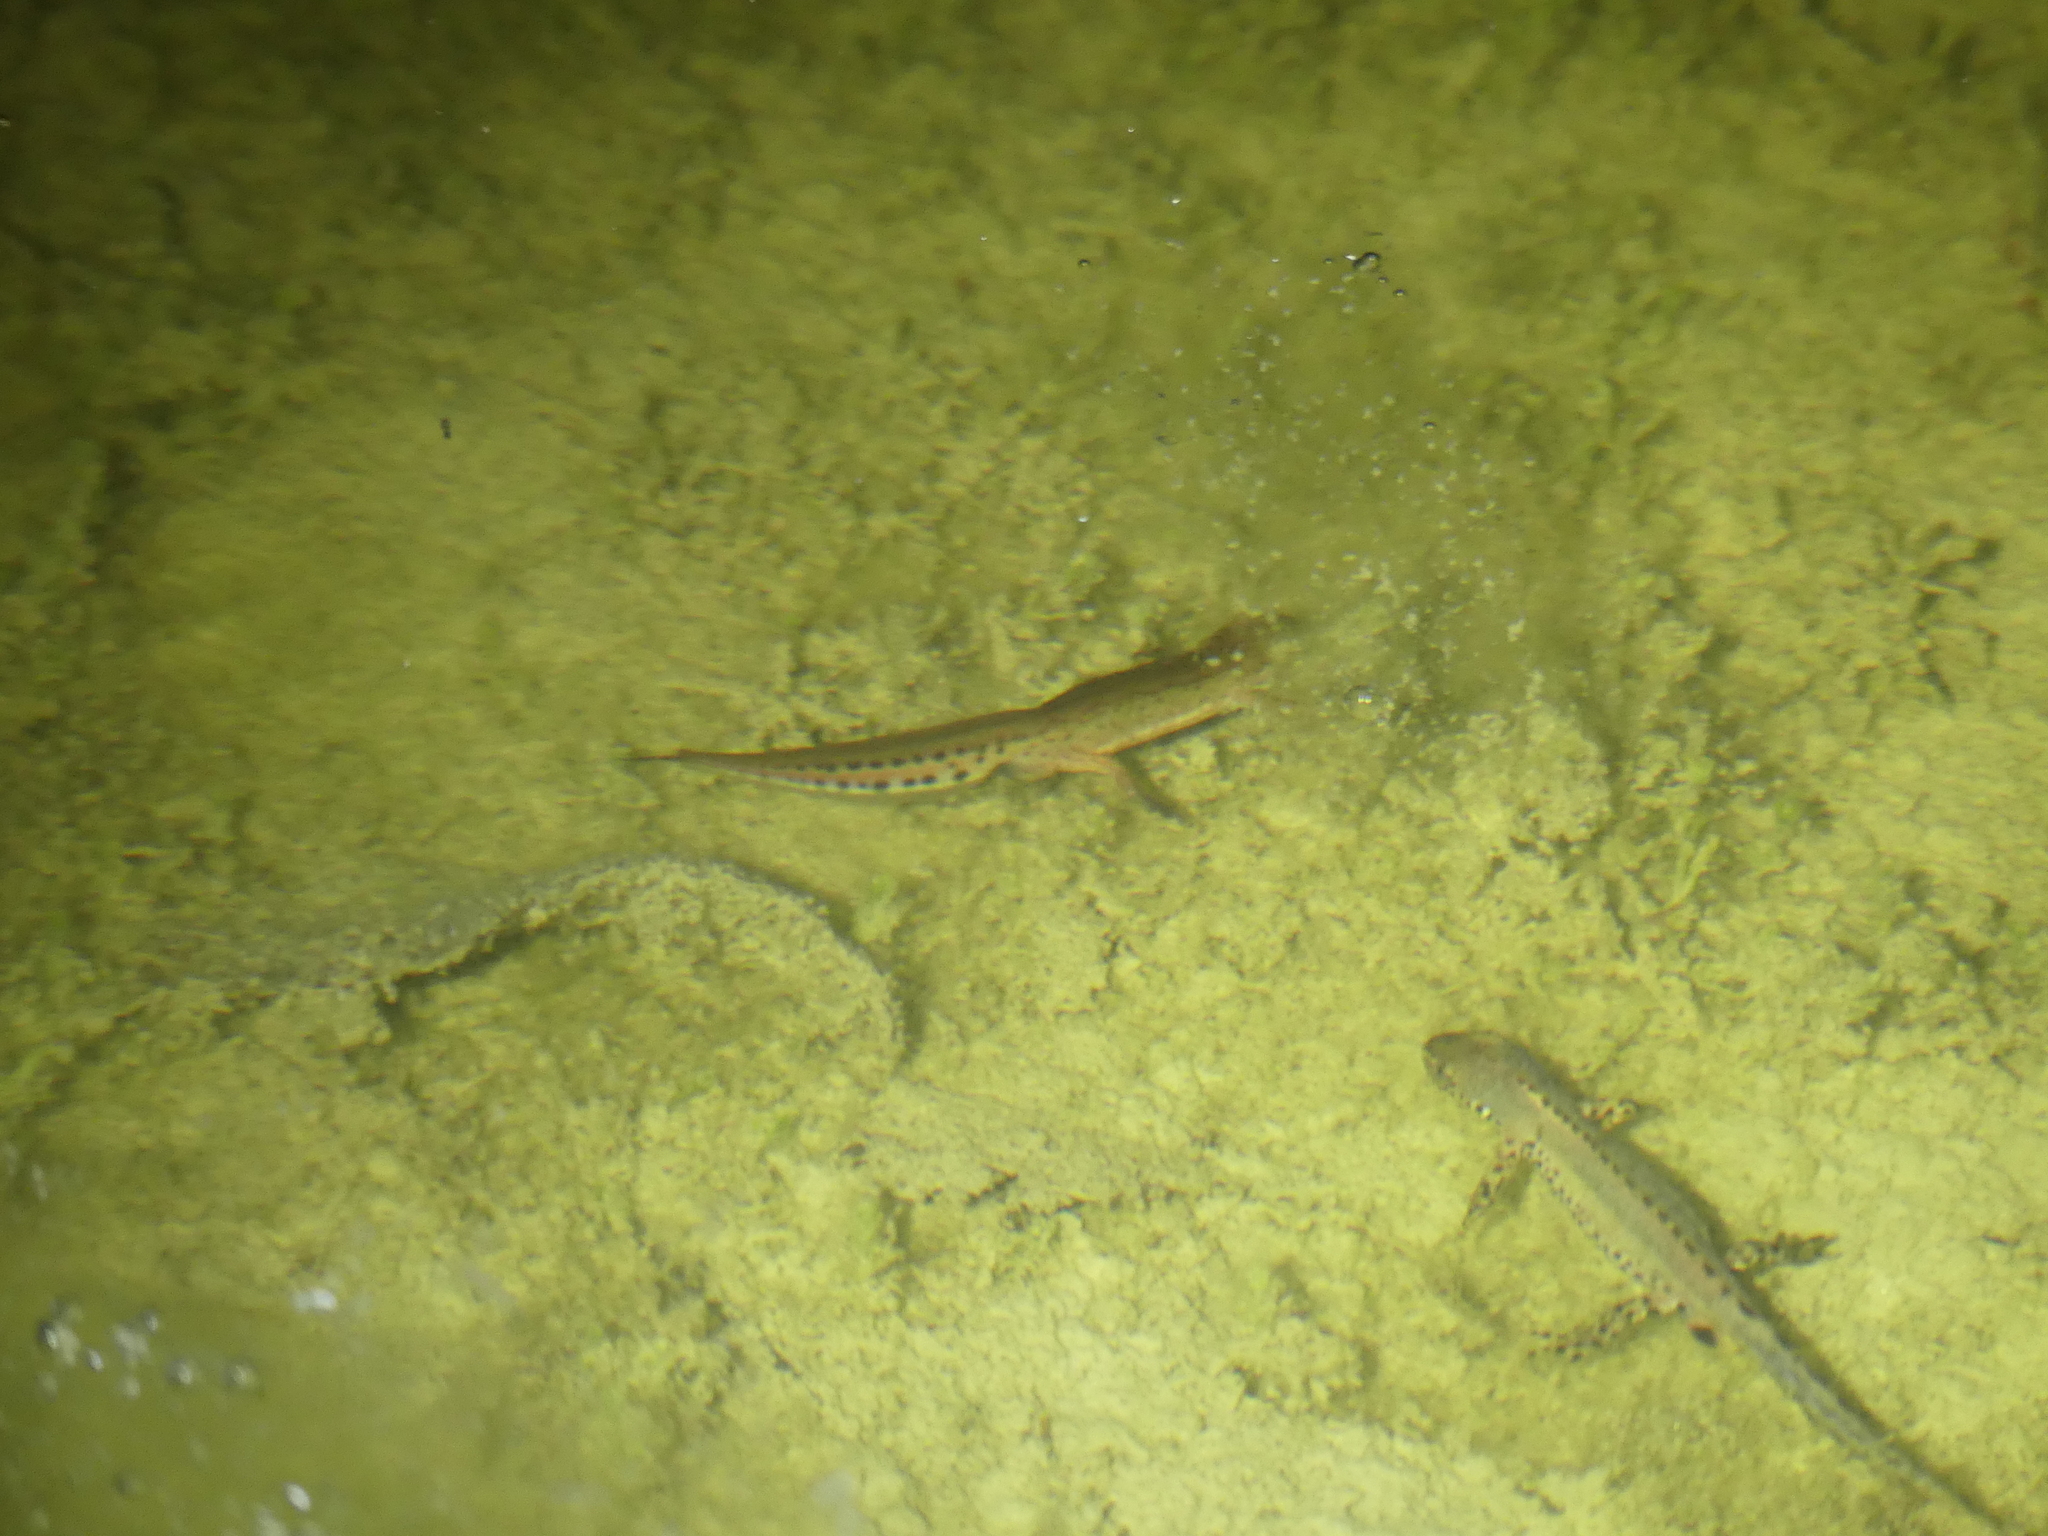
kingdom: Animalia
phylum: Chordata
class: Amphibia
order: Caudata
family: Salamandridae
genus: Ichthyosaura
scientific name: Ichthyosaura alpestris
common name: Alpine newt
